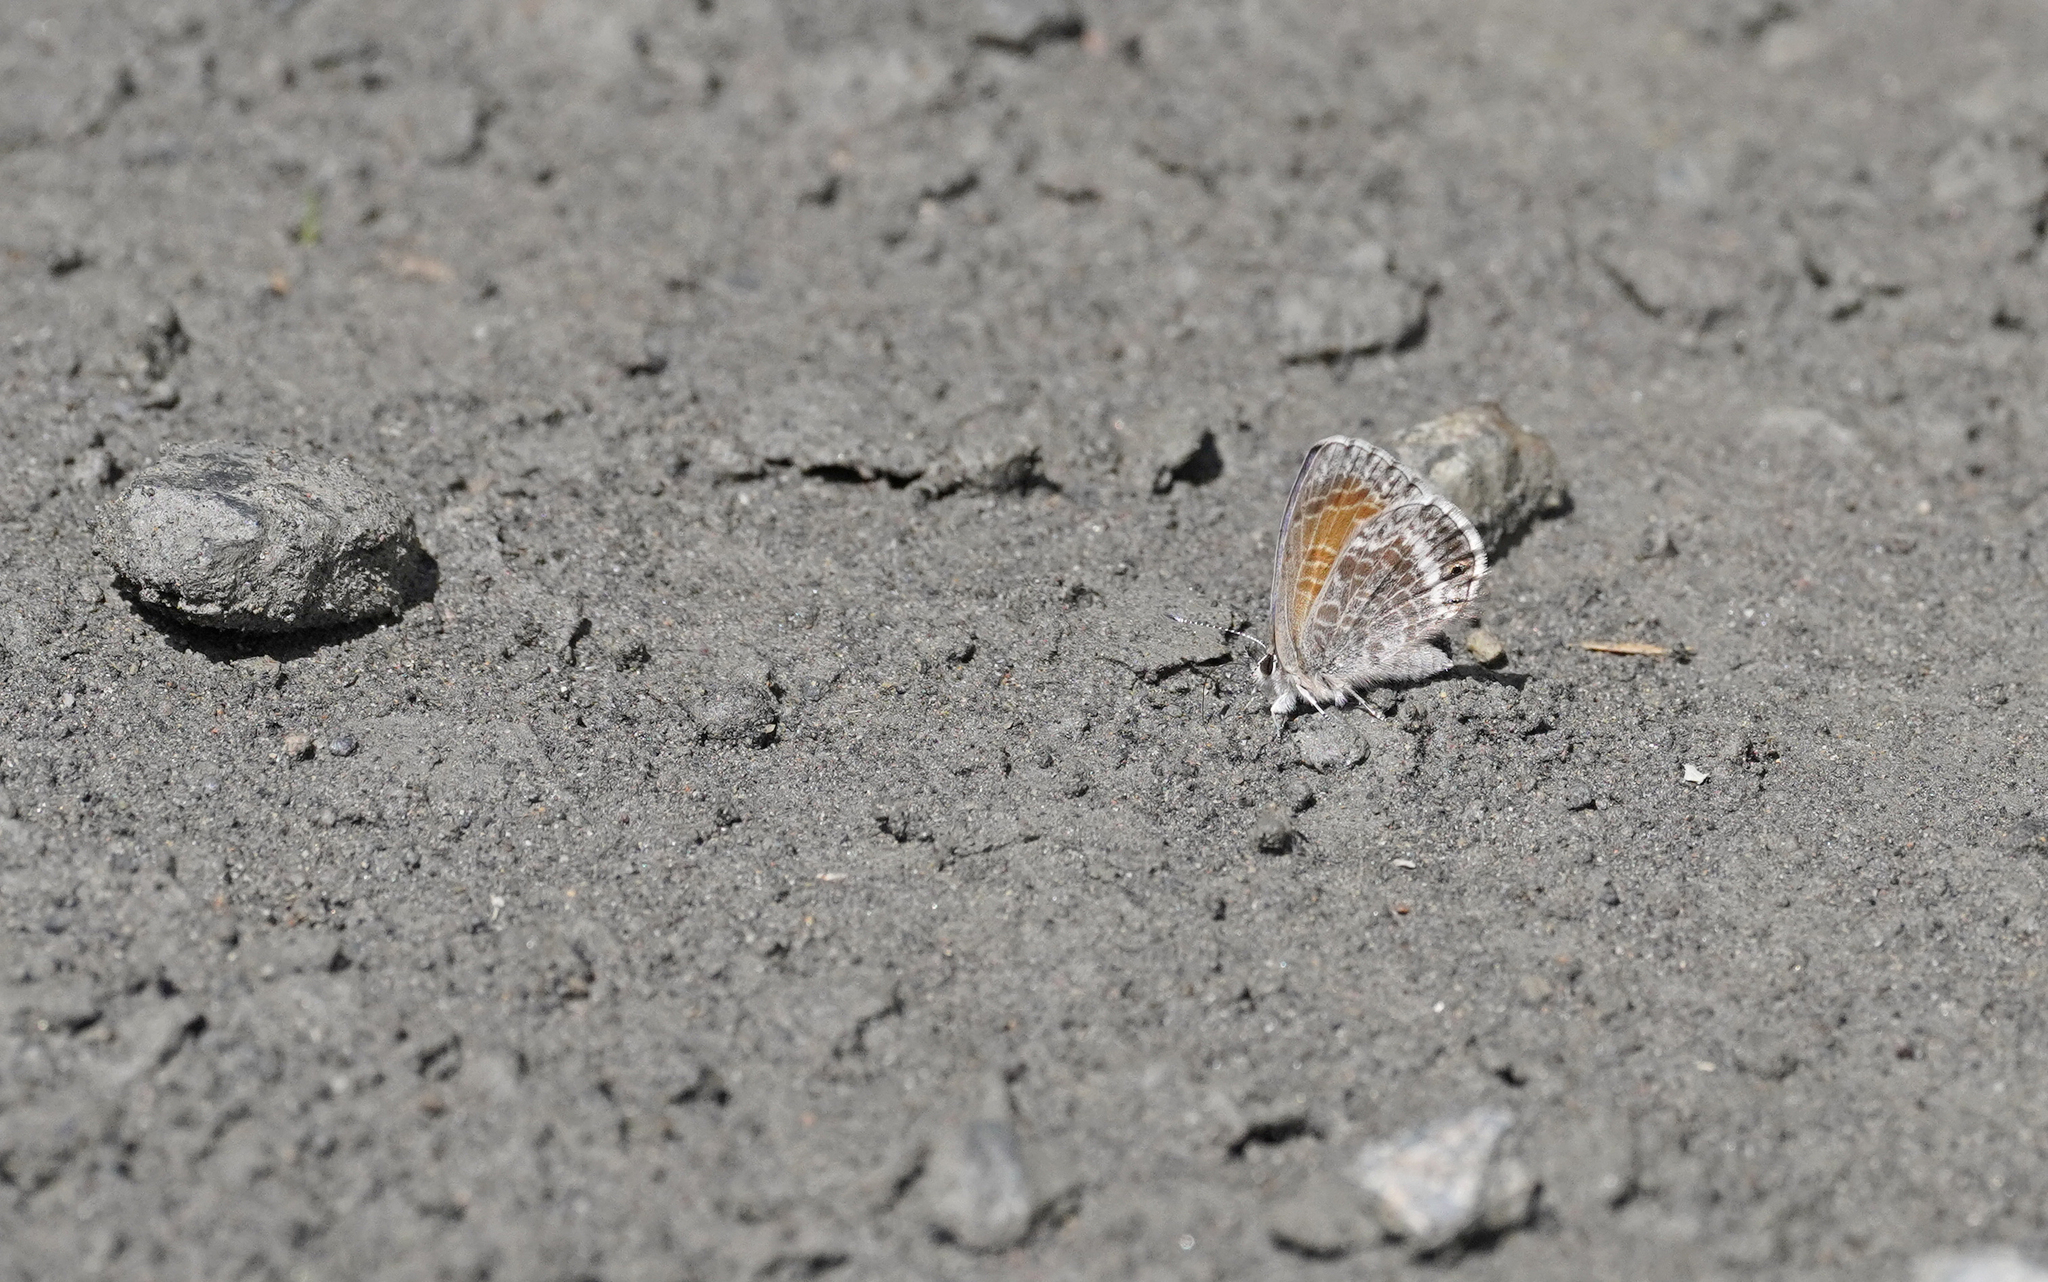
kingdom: Animalia
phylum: Arthropoda
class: Insecta
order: Lepidoptera
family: Lycaenidae
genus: Leptotes
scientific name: Leptotes callanga
